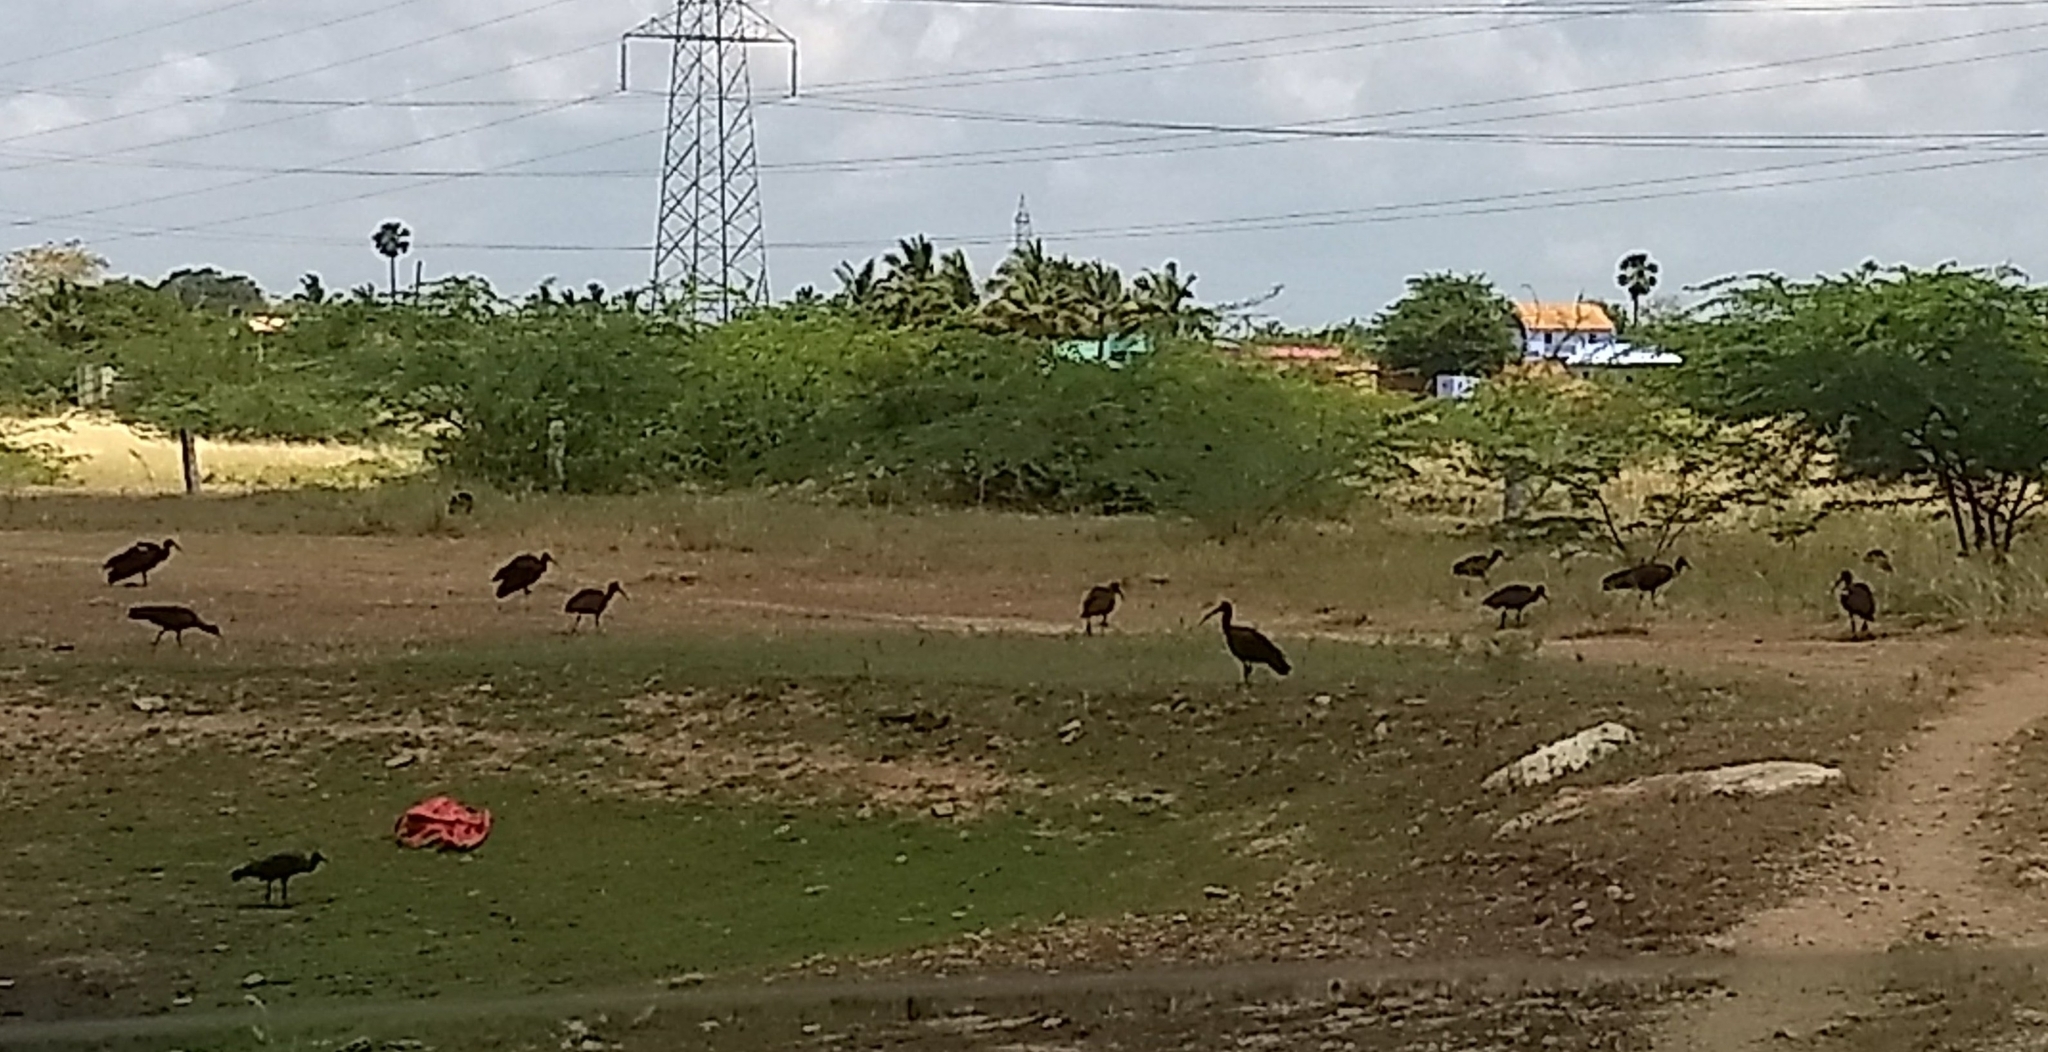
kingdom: Animalia
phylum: Chordata
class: Aves
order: Pelecaniformes
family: Threskiornithidae
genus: Pseudibis
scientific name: Pseudibis papillosa
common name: Red-naped ibis
